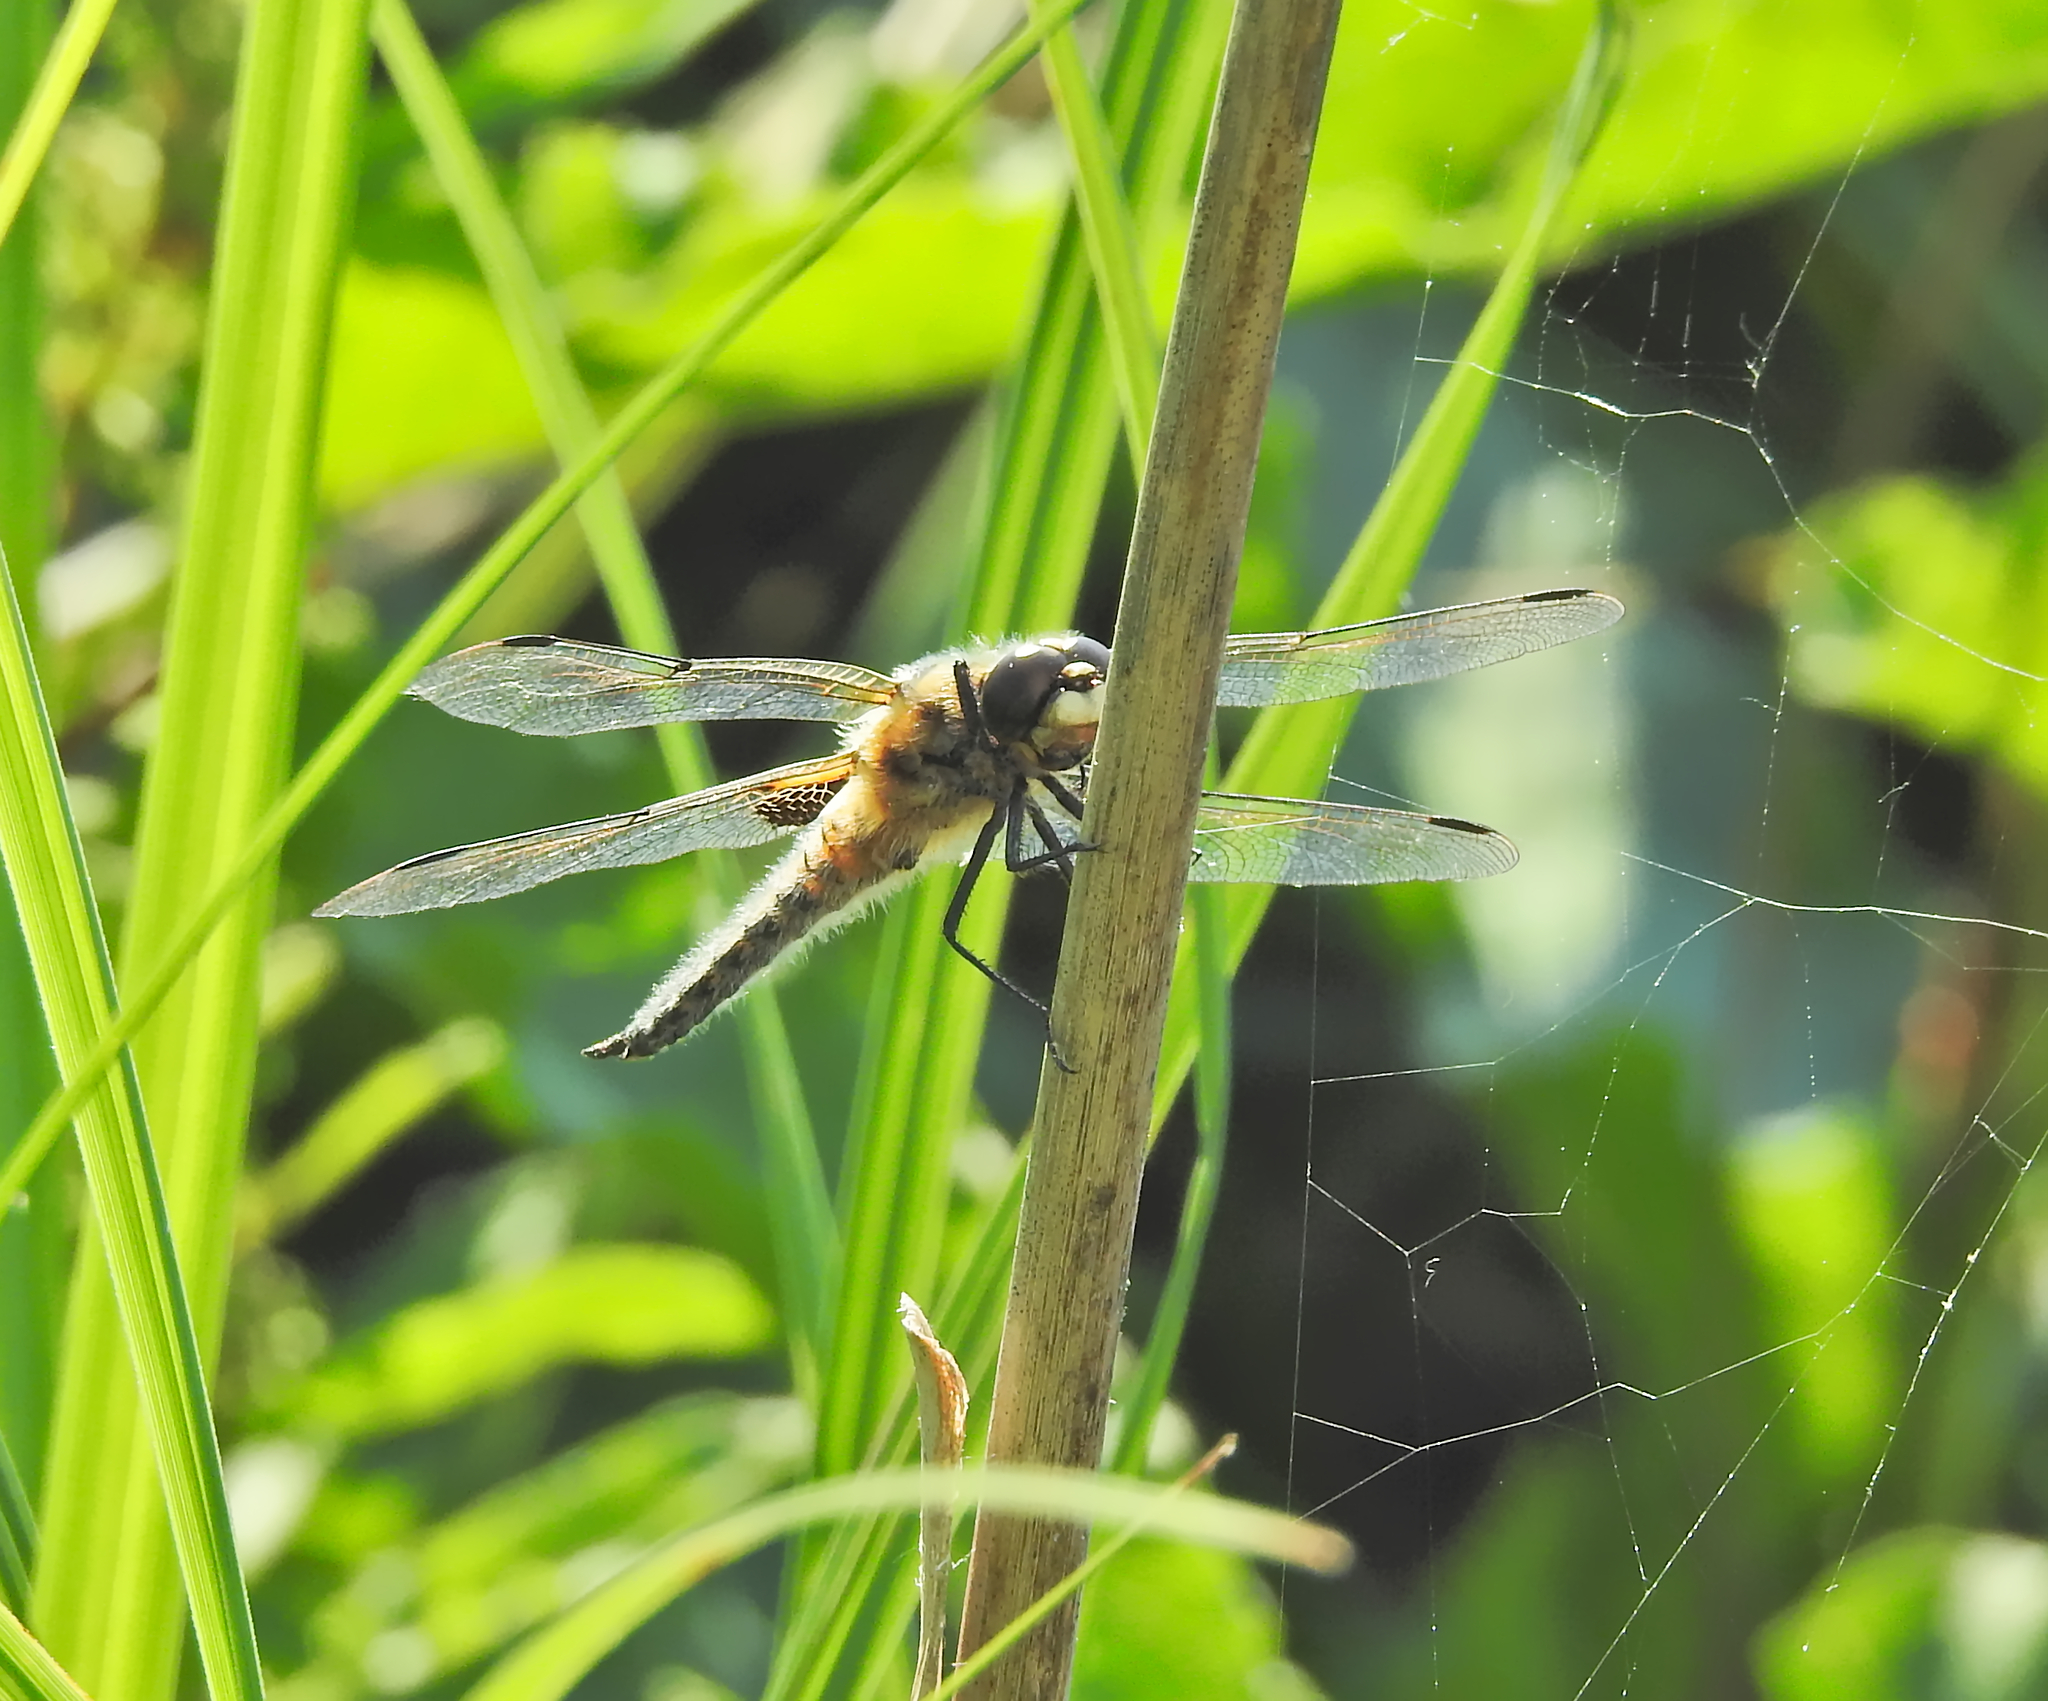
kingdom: Animalia
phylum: Arthropoda
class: Insecta
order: Odonata
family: Libellulidae
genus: Libellula
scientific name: Libellula quadrimaculata
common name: Four-spotted chaser
